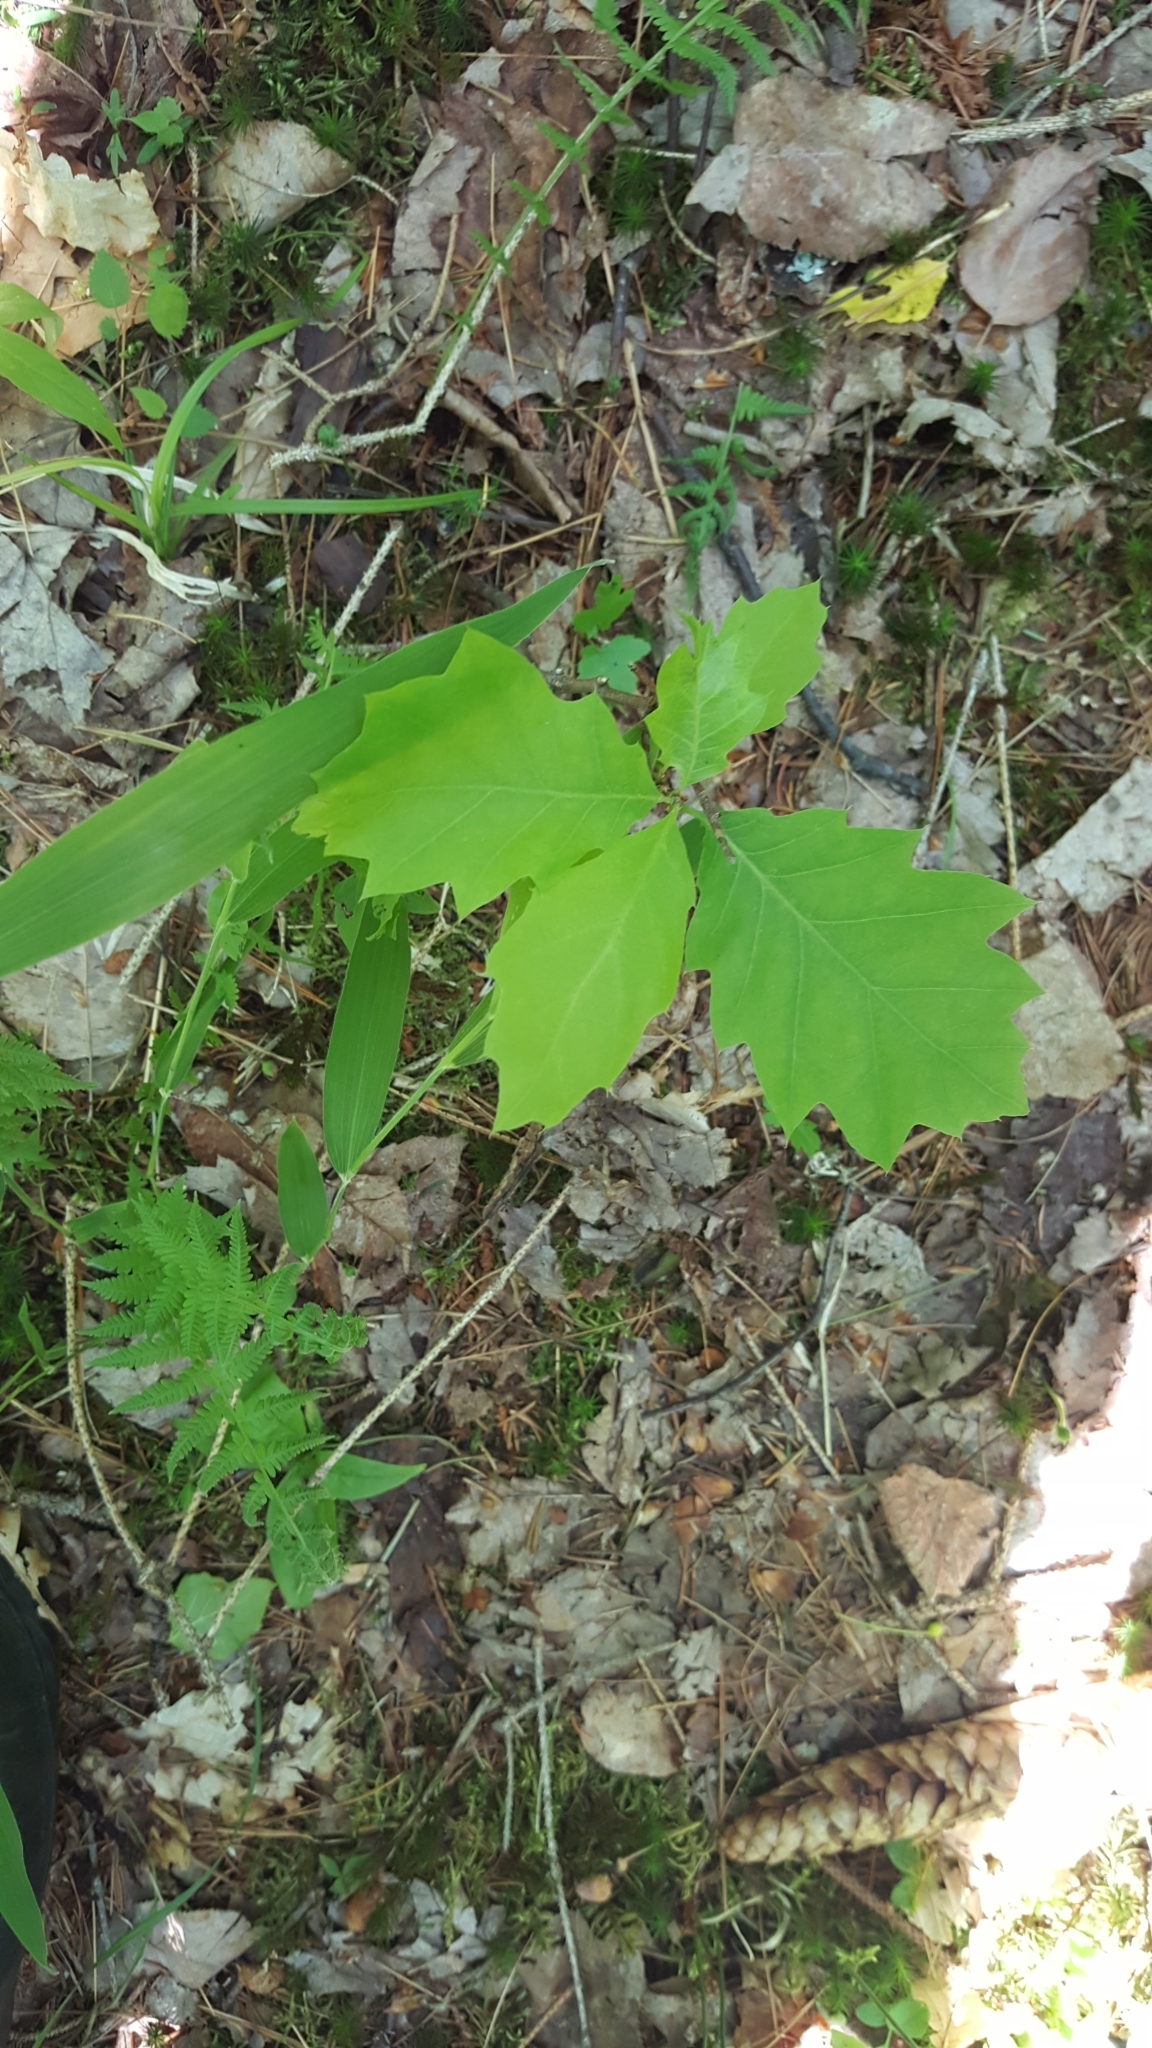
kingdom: Plantae
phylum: Tracheophyta
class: Magnoliopsida
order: Fagales
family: Fagaceae
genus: Quercus
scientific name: Quercus rubra
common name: Red oak
